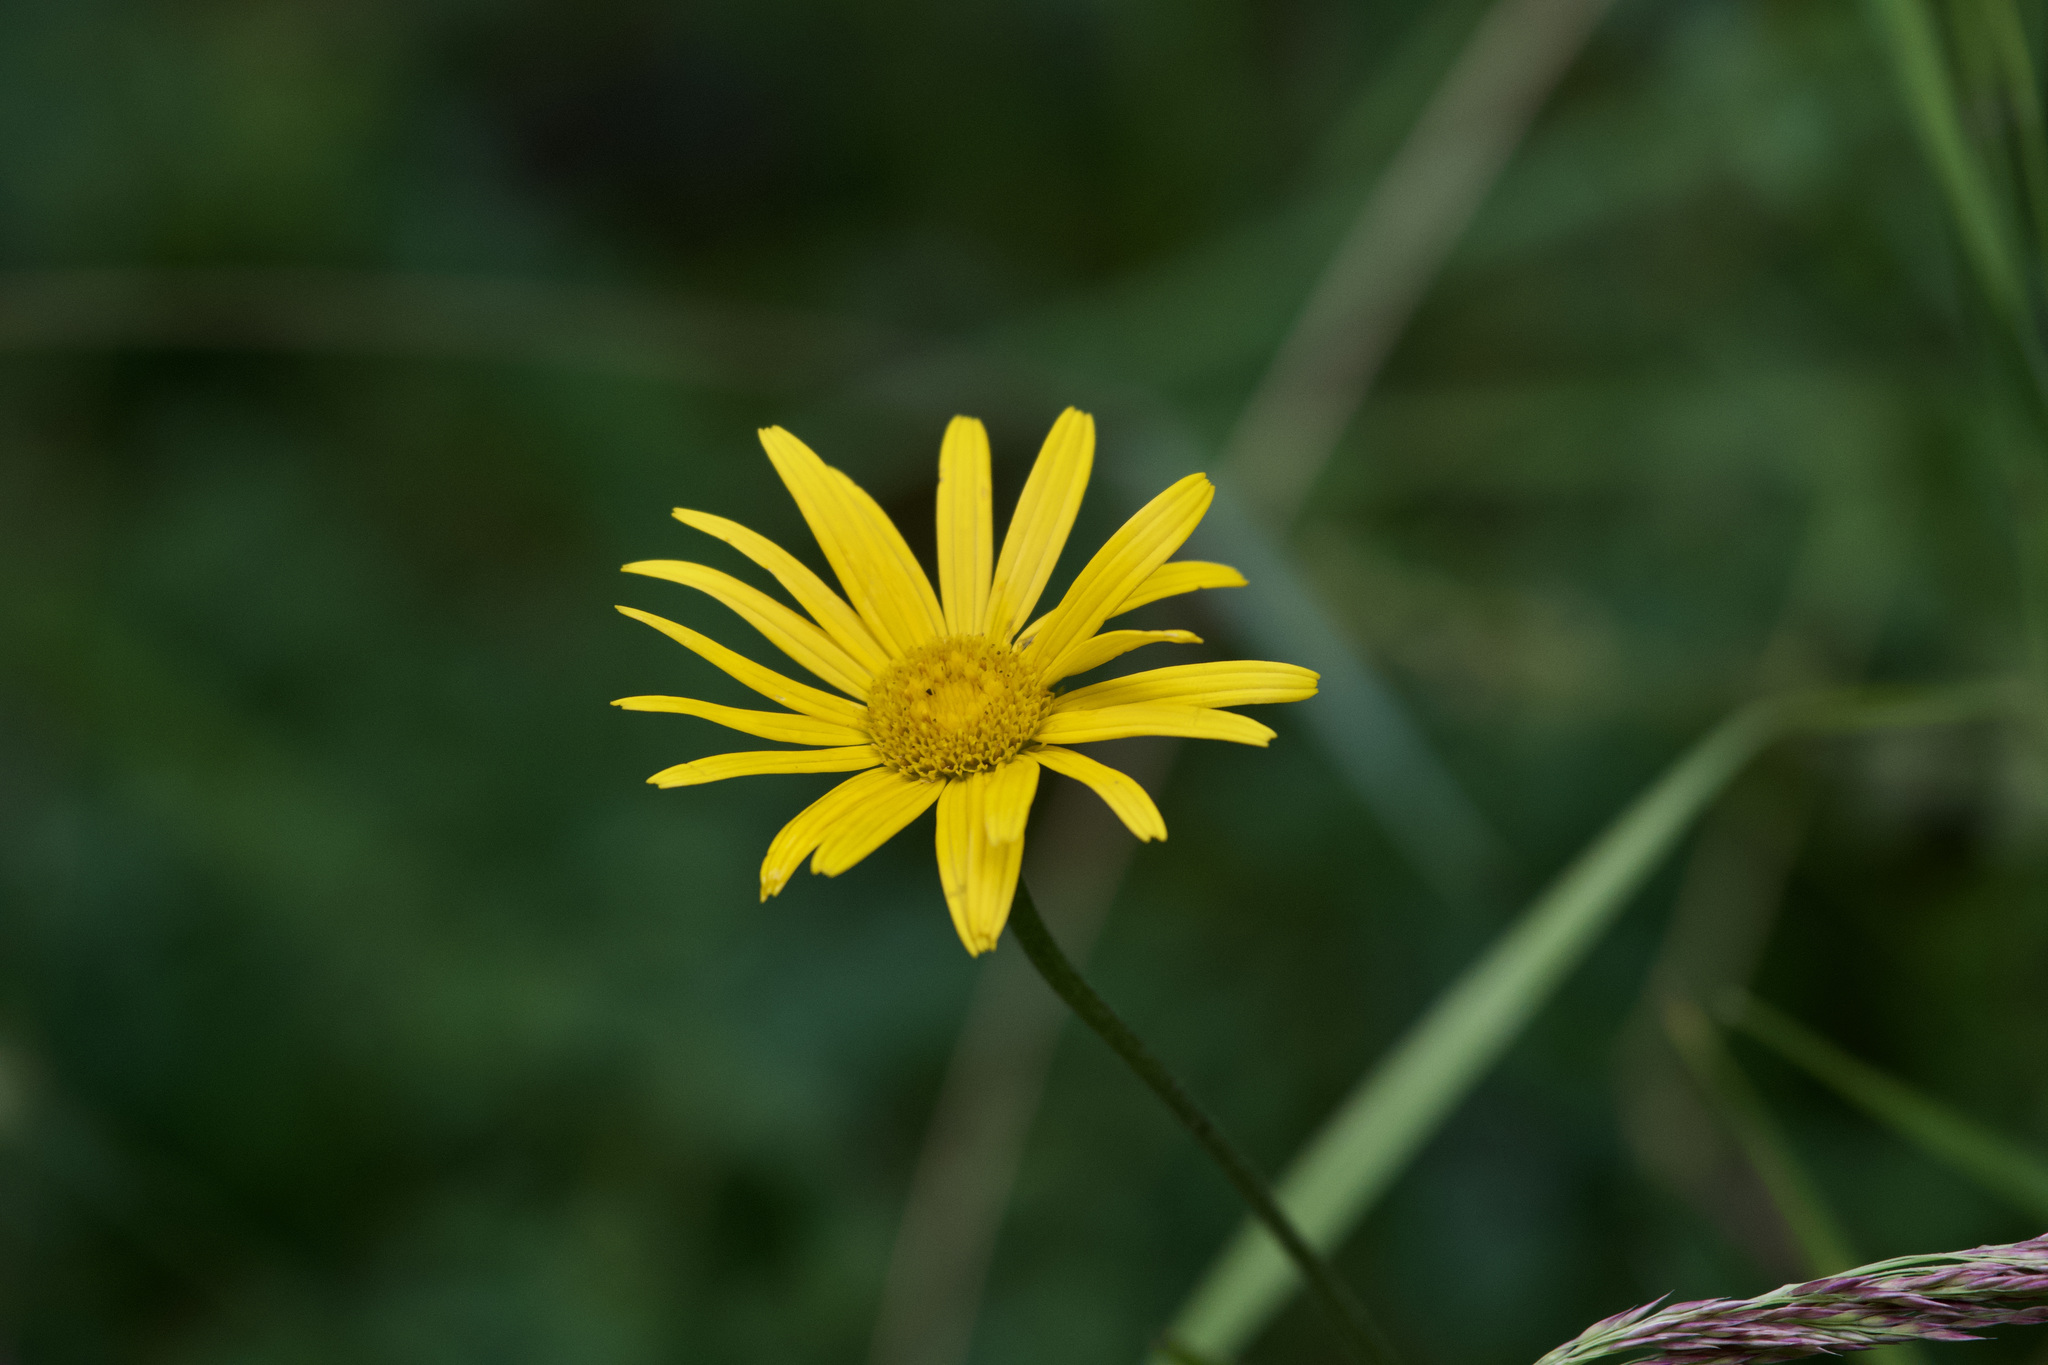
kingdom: Plantae
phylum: Tracheophyta
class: Magnoliopsida
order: Asterales
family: Asteraceae
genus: Buphthalmum
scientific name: Buphthalmum salicifolium
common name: Willow-leaved yellow-oxeye
